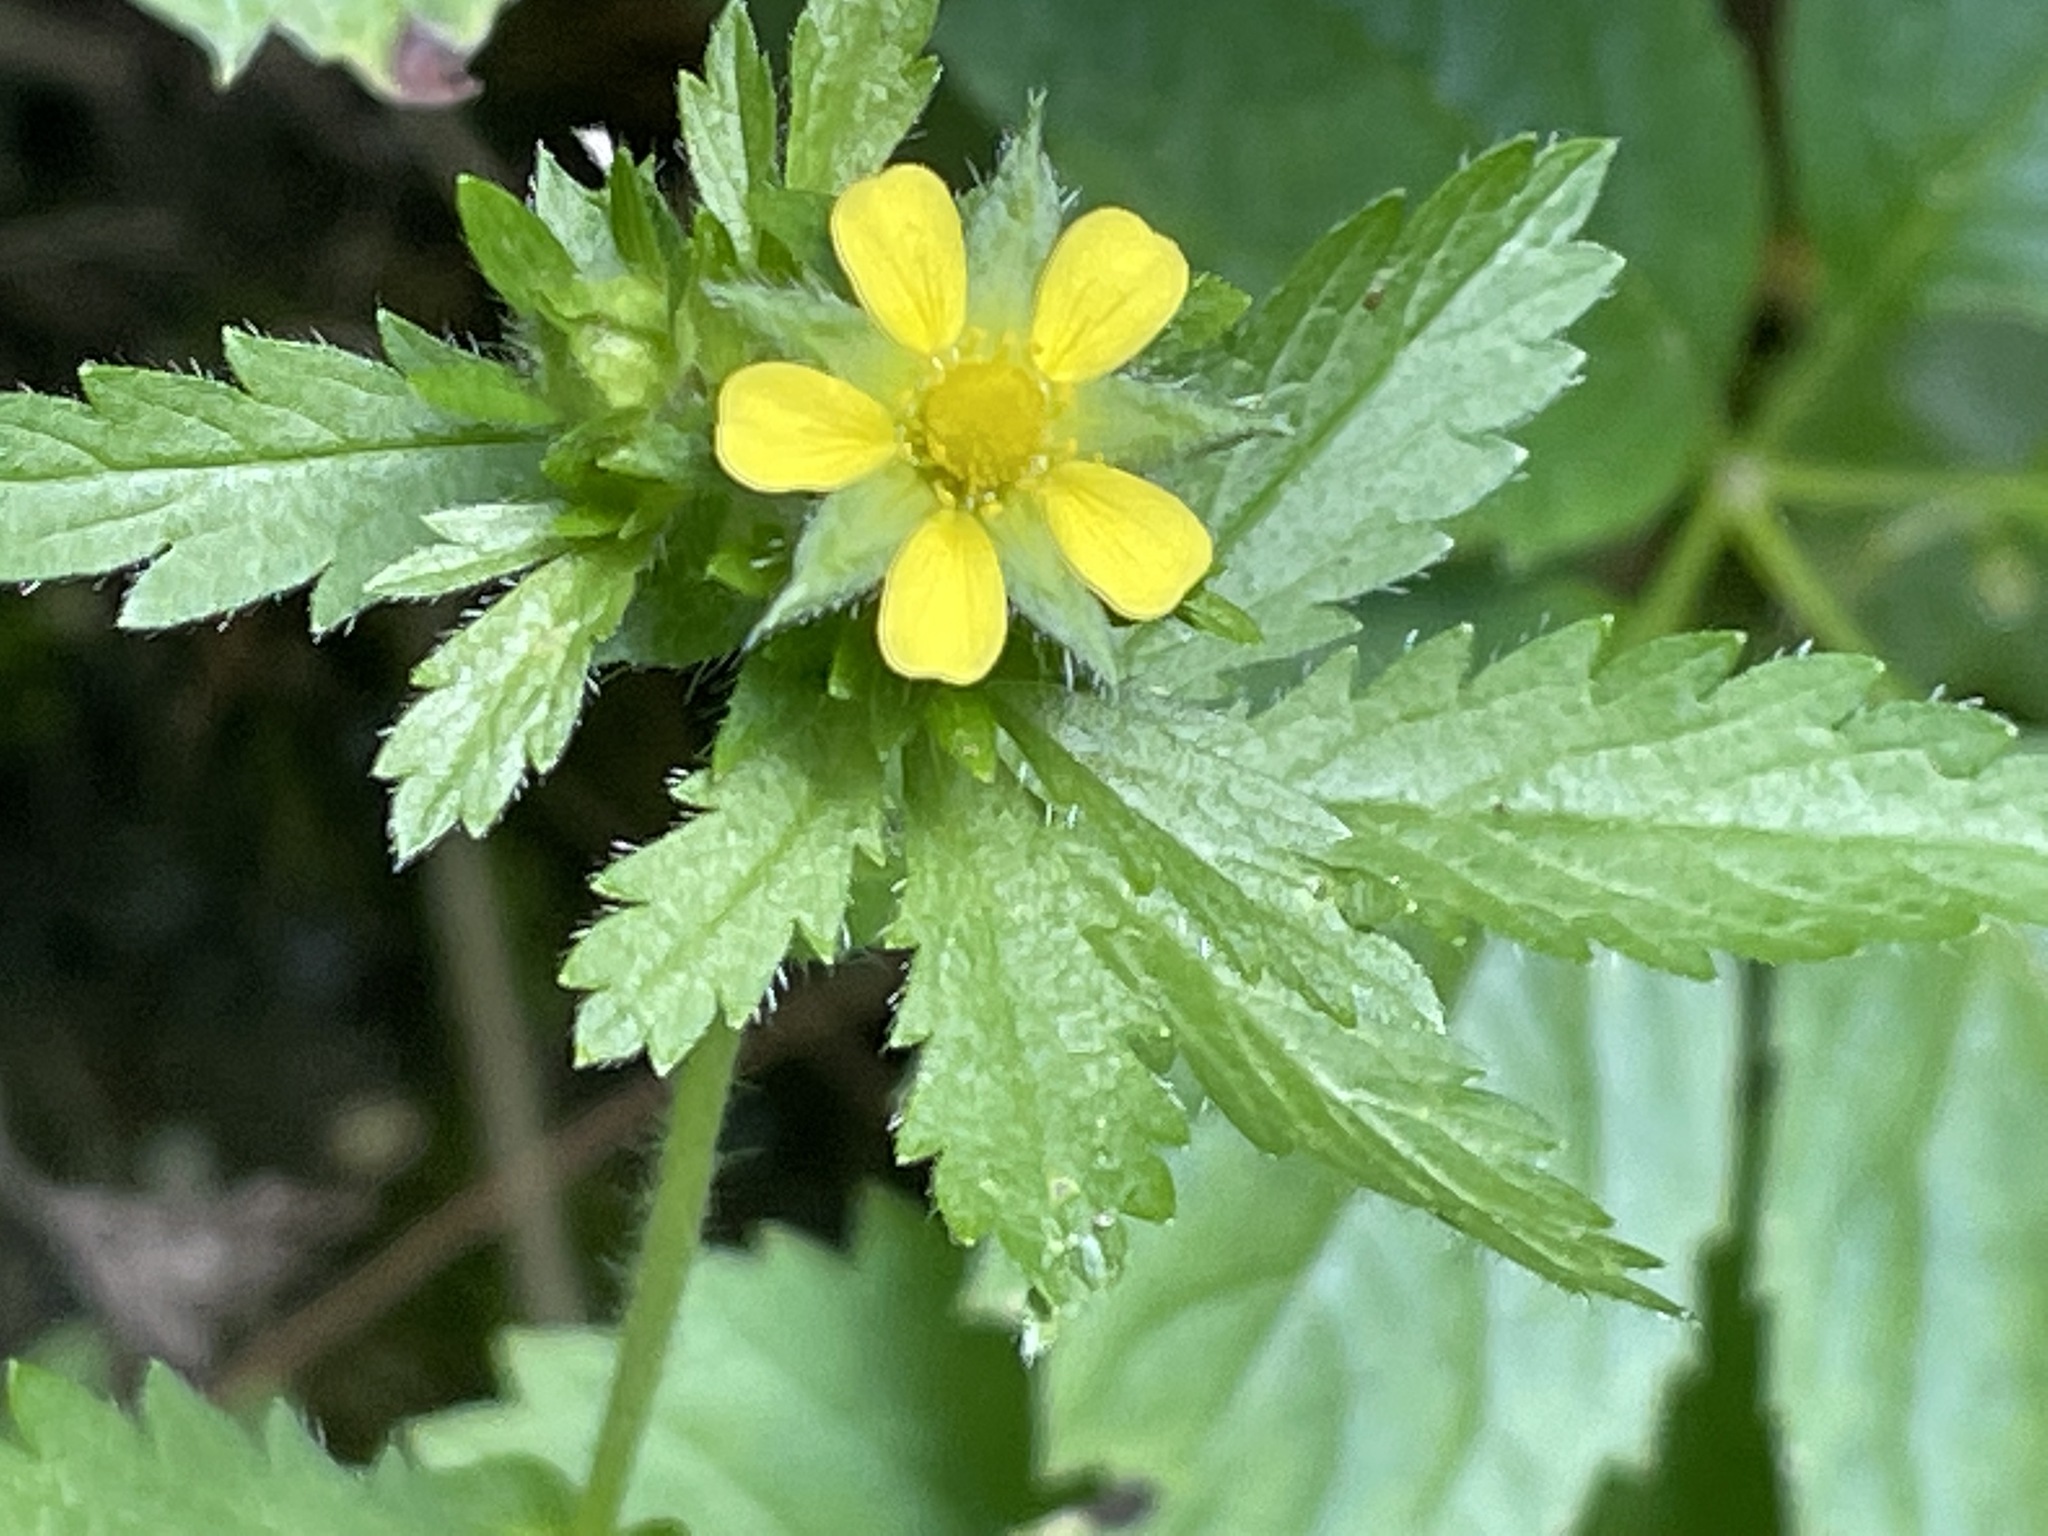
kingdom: Plantae
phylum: Tracheophyta
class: Magnoliopsida
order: Rosales
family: Rosaceae
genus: Potentilla
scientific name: Potentilla norvegica
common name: Ternate-leaved cinquefoil
